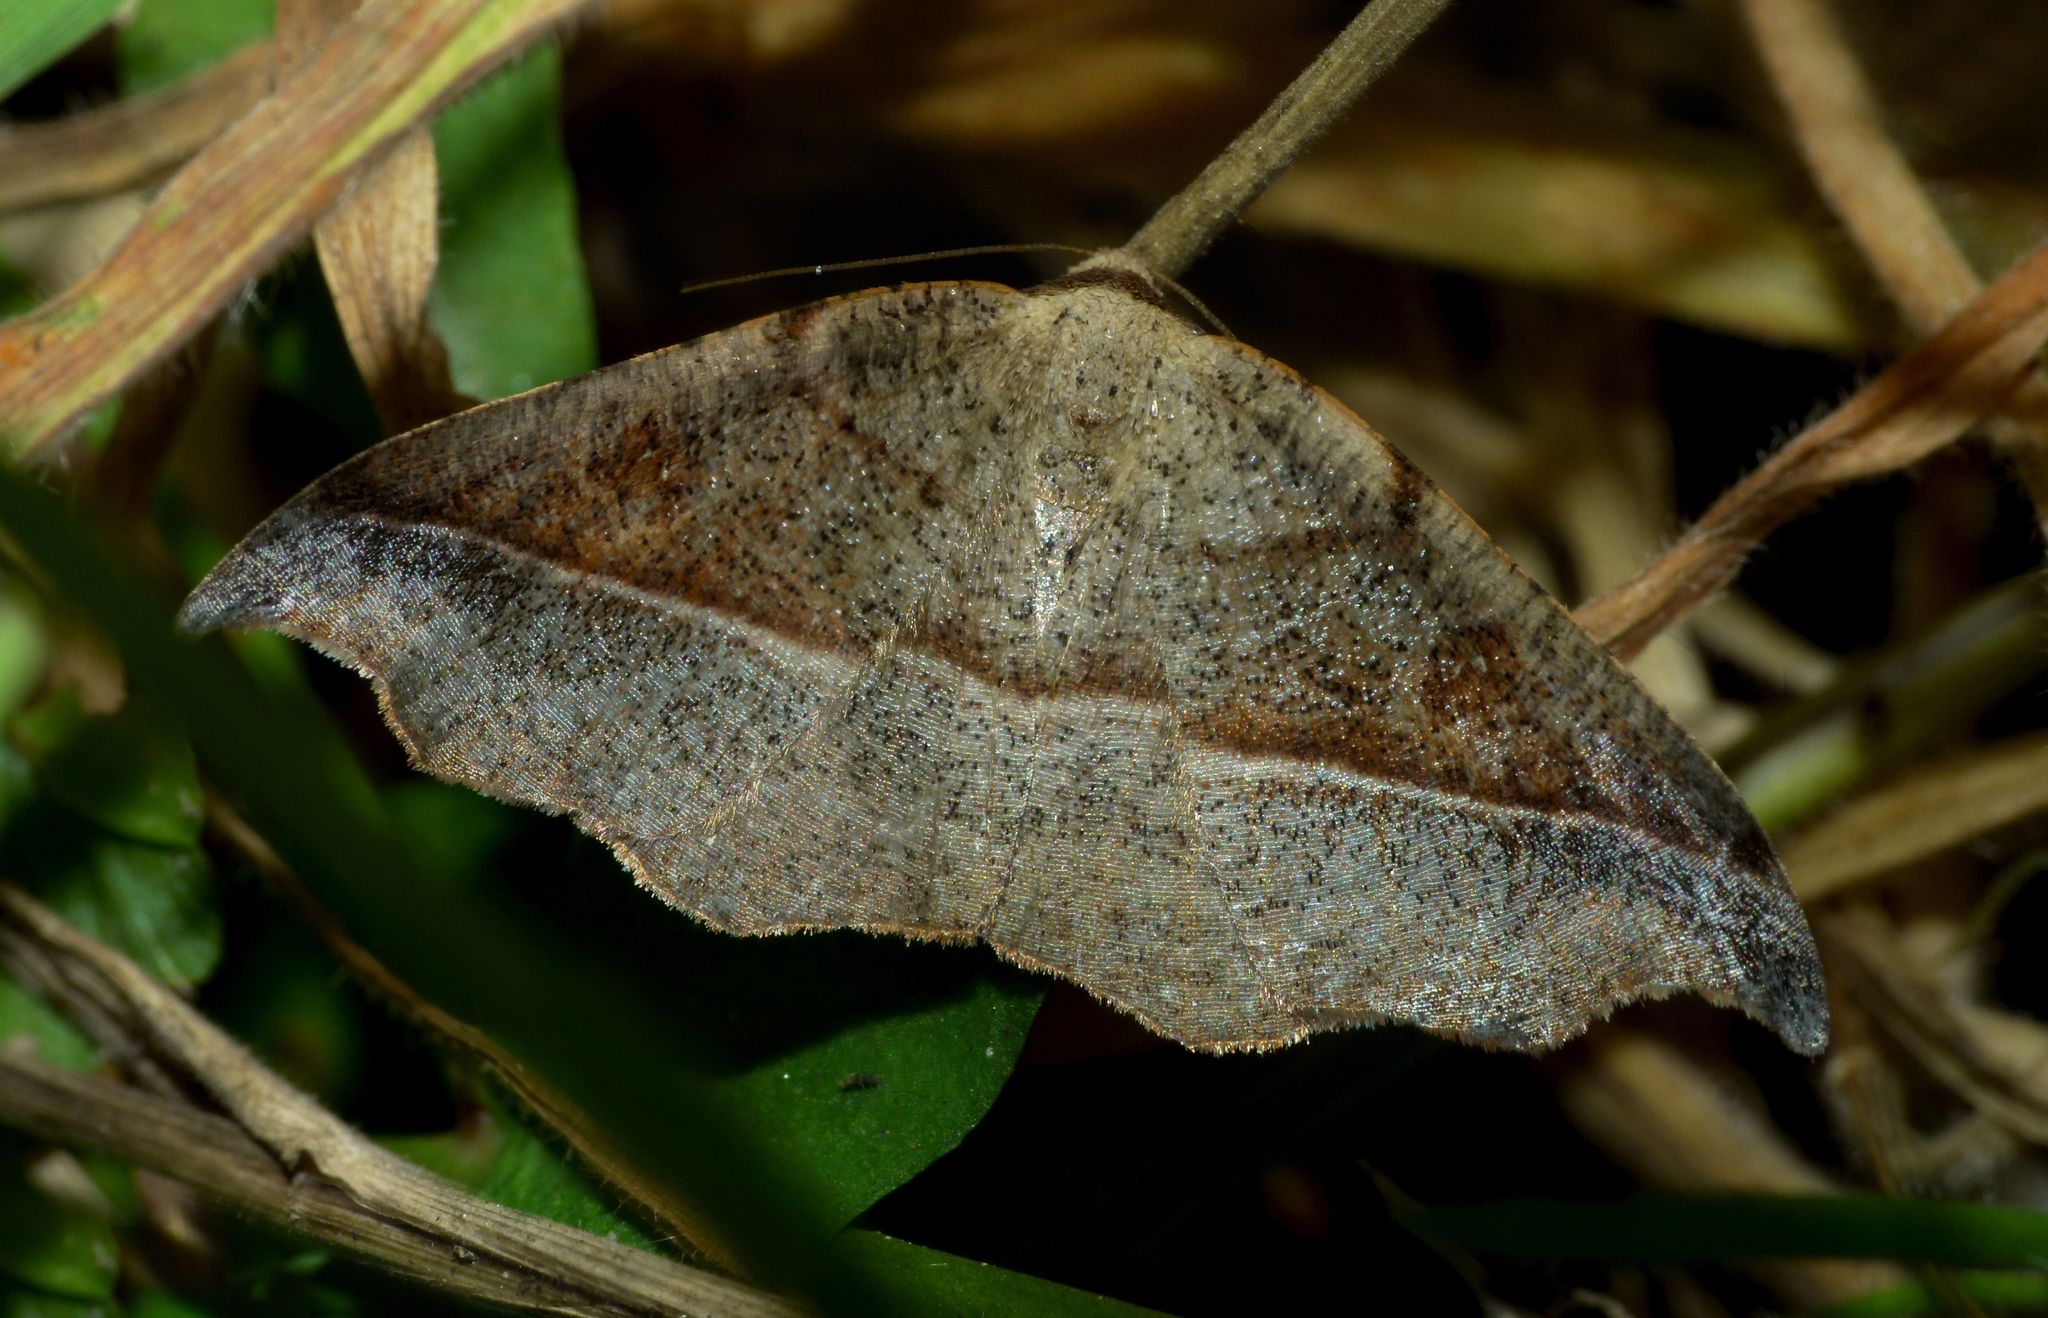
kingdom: Animalia
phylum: Arthropoda
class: Insecta
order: Lepidoptera
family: Geometridae
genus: Sarisa
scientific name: Sarisa muriferata
